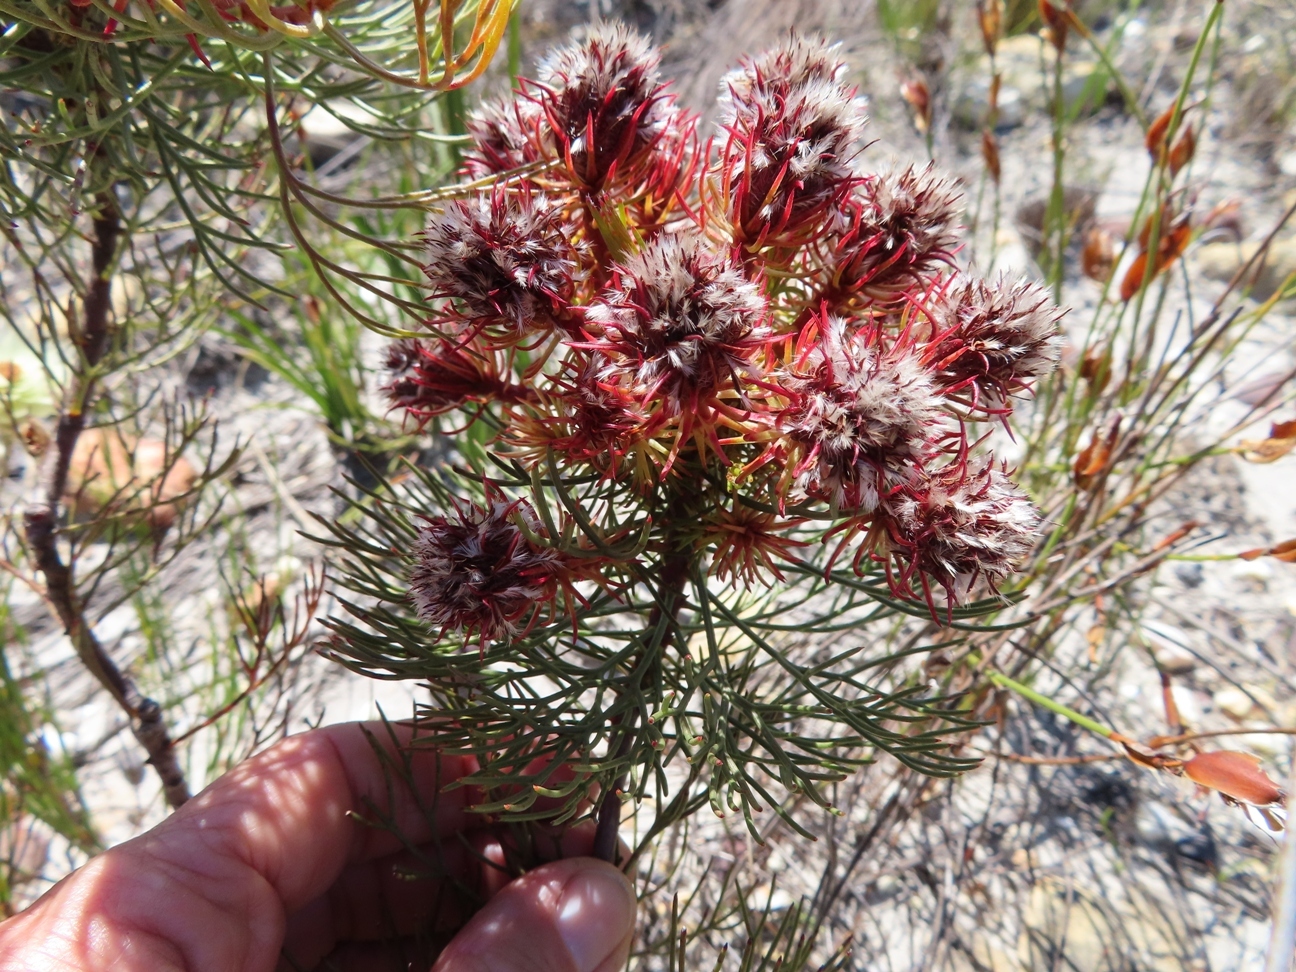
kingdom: Plantae
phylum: Tracheophyta
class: Magnoliopsida
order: Proteales
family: Proteaceae
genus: Serruria
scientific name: Serruria phylicoides
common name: Bearded spiderhead
